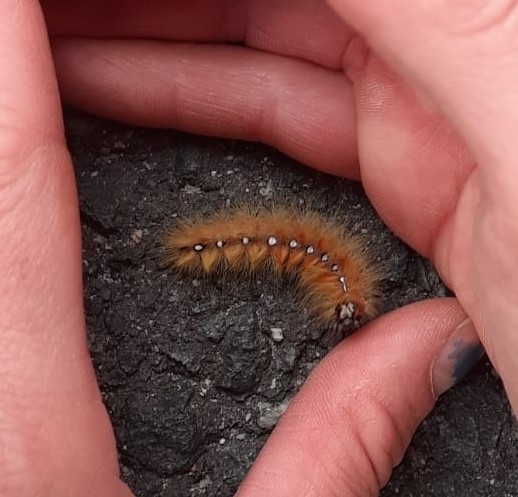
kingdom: Animalia
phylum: Arthropoda
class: Insecta
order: Lepidoptera
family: Noctuidae
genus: Acronicta
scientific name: Acronicta aceris
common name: Sycamore
